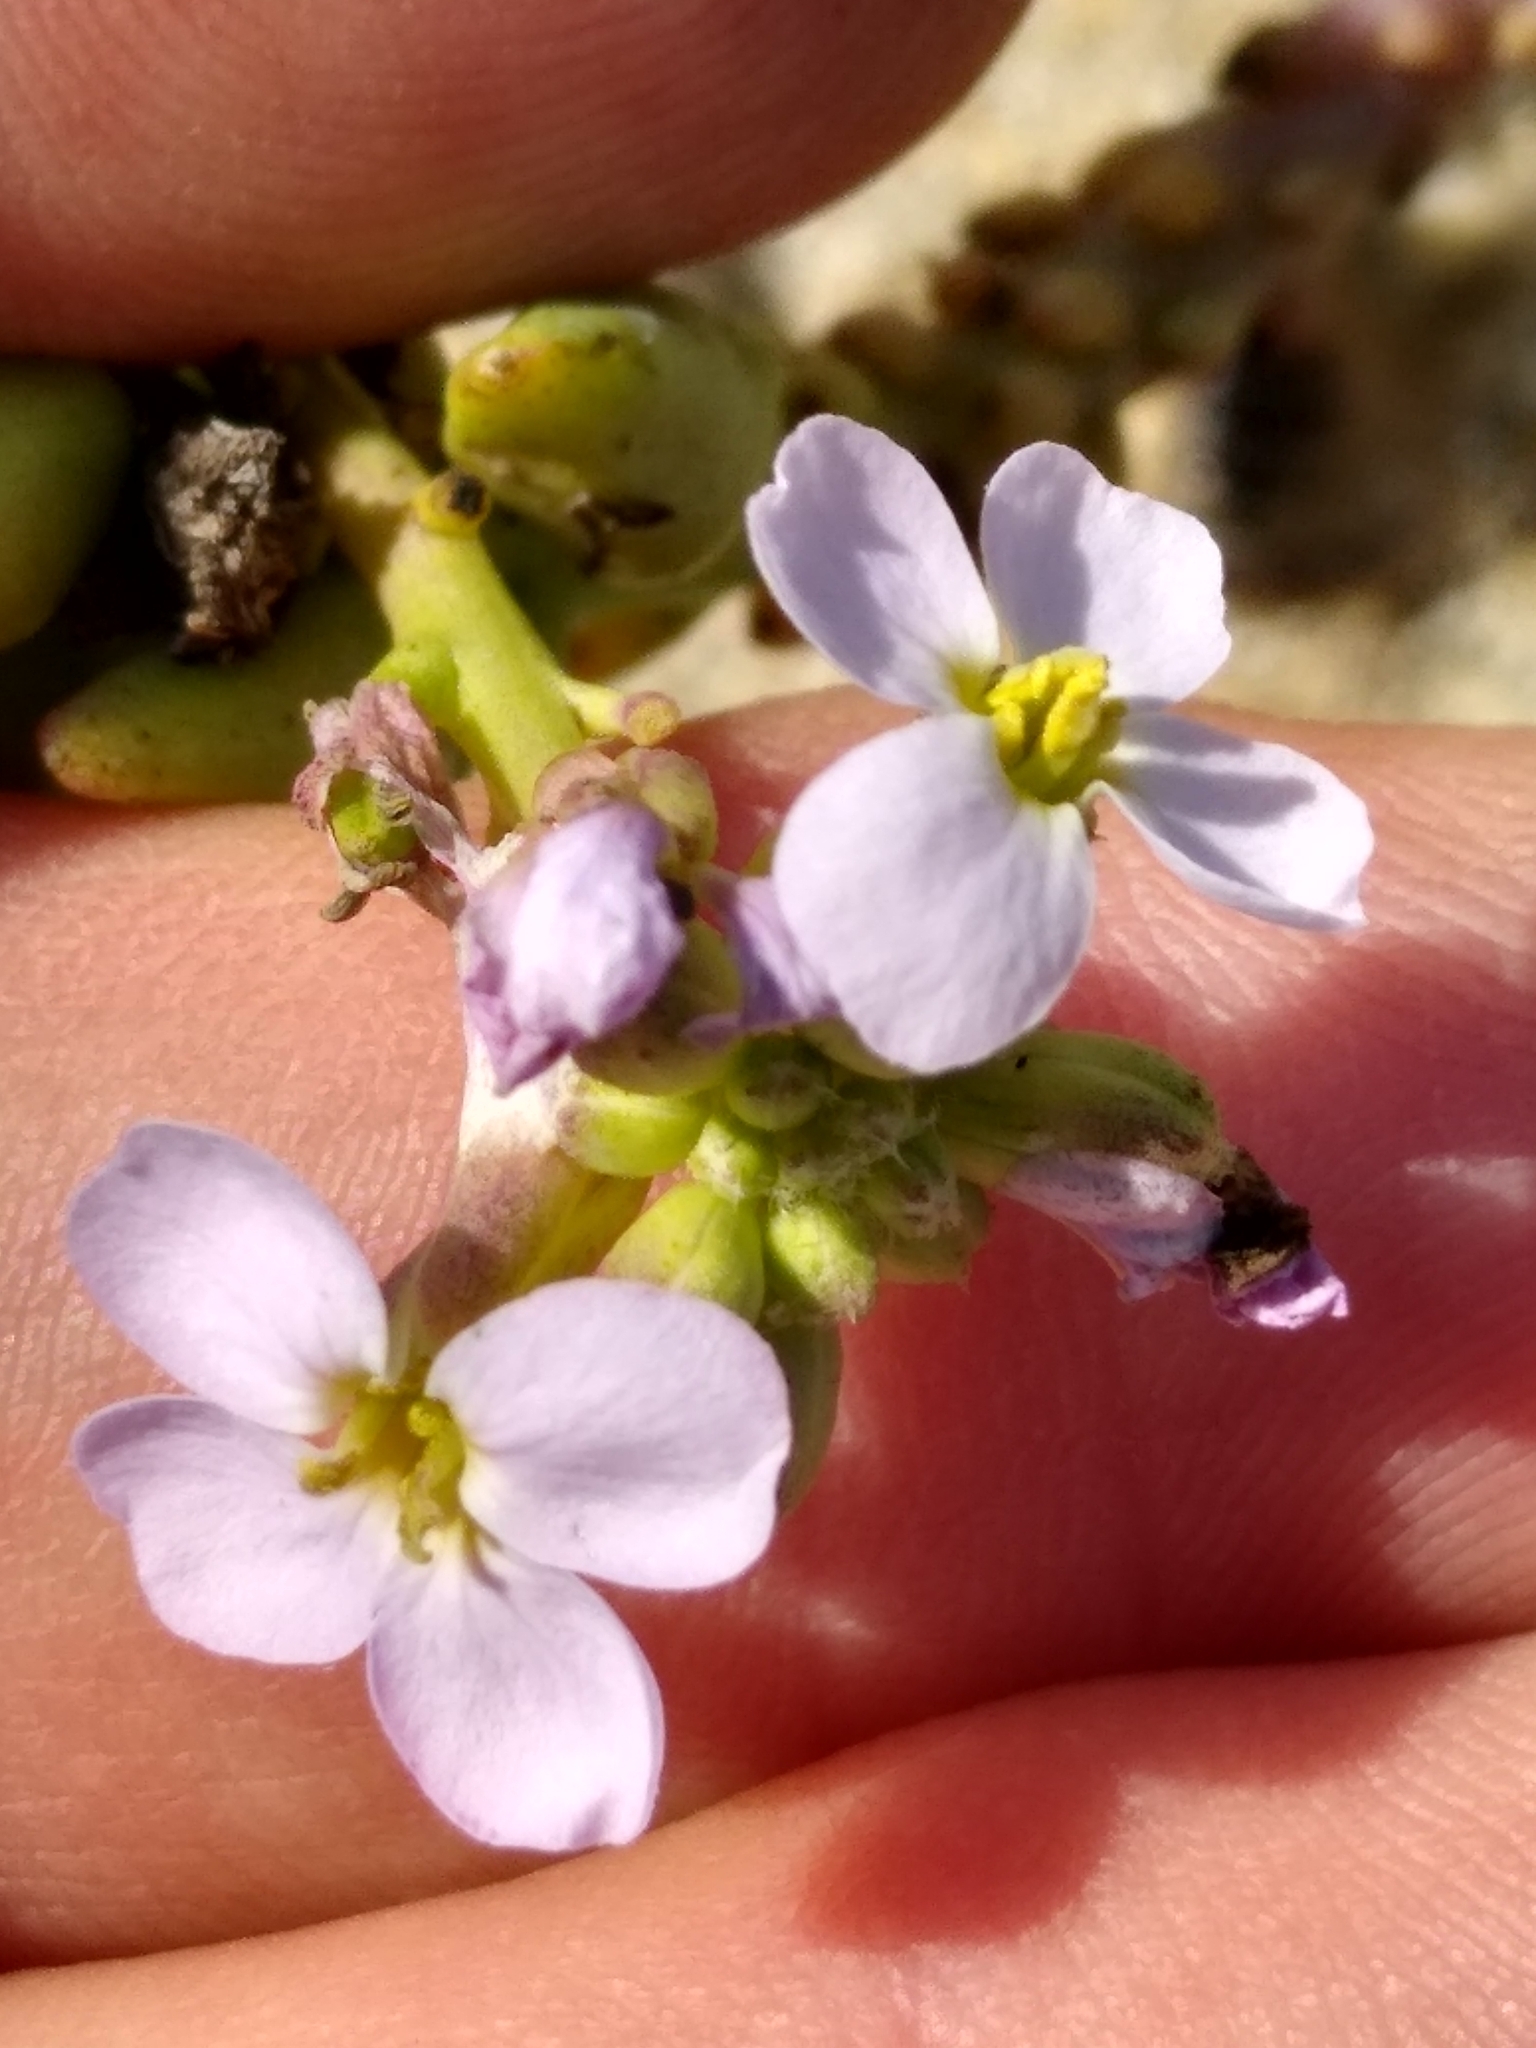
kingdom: Plantae
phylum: Tracheophyta
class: Magnoliopsida
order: Brassicales
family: Brassicaceae
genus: Cakile
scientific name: Cakile maritima
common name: Sea rocket
